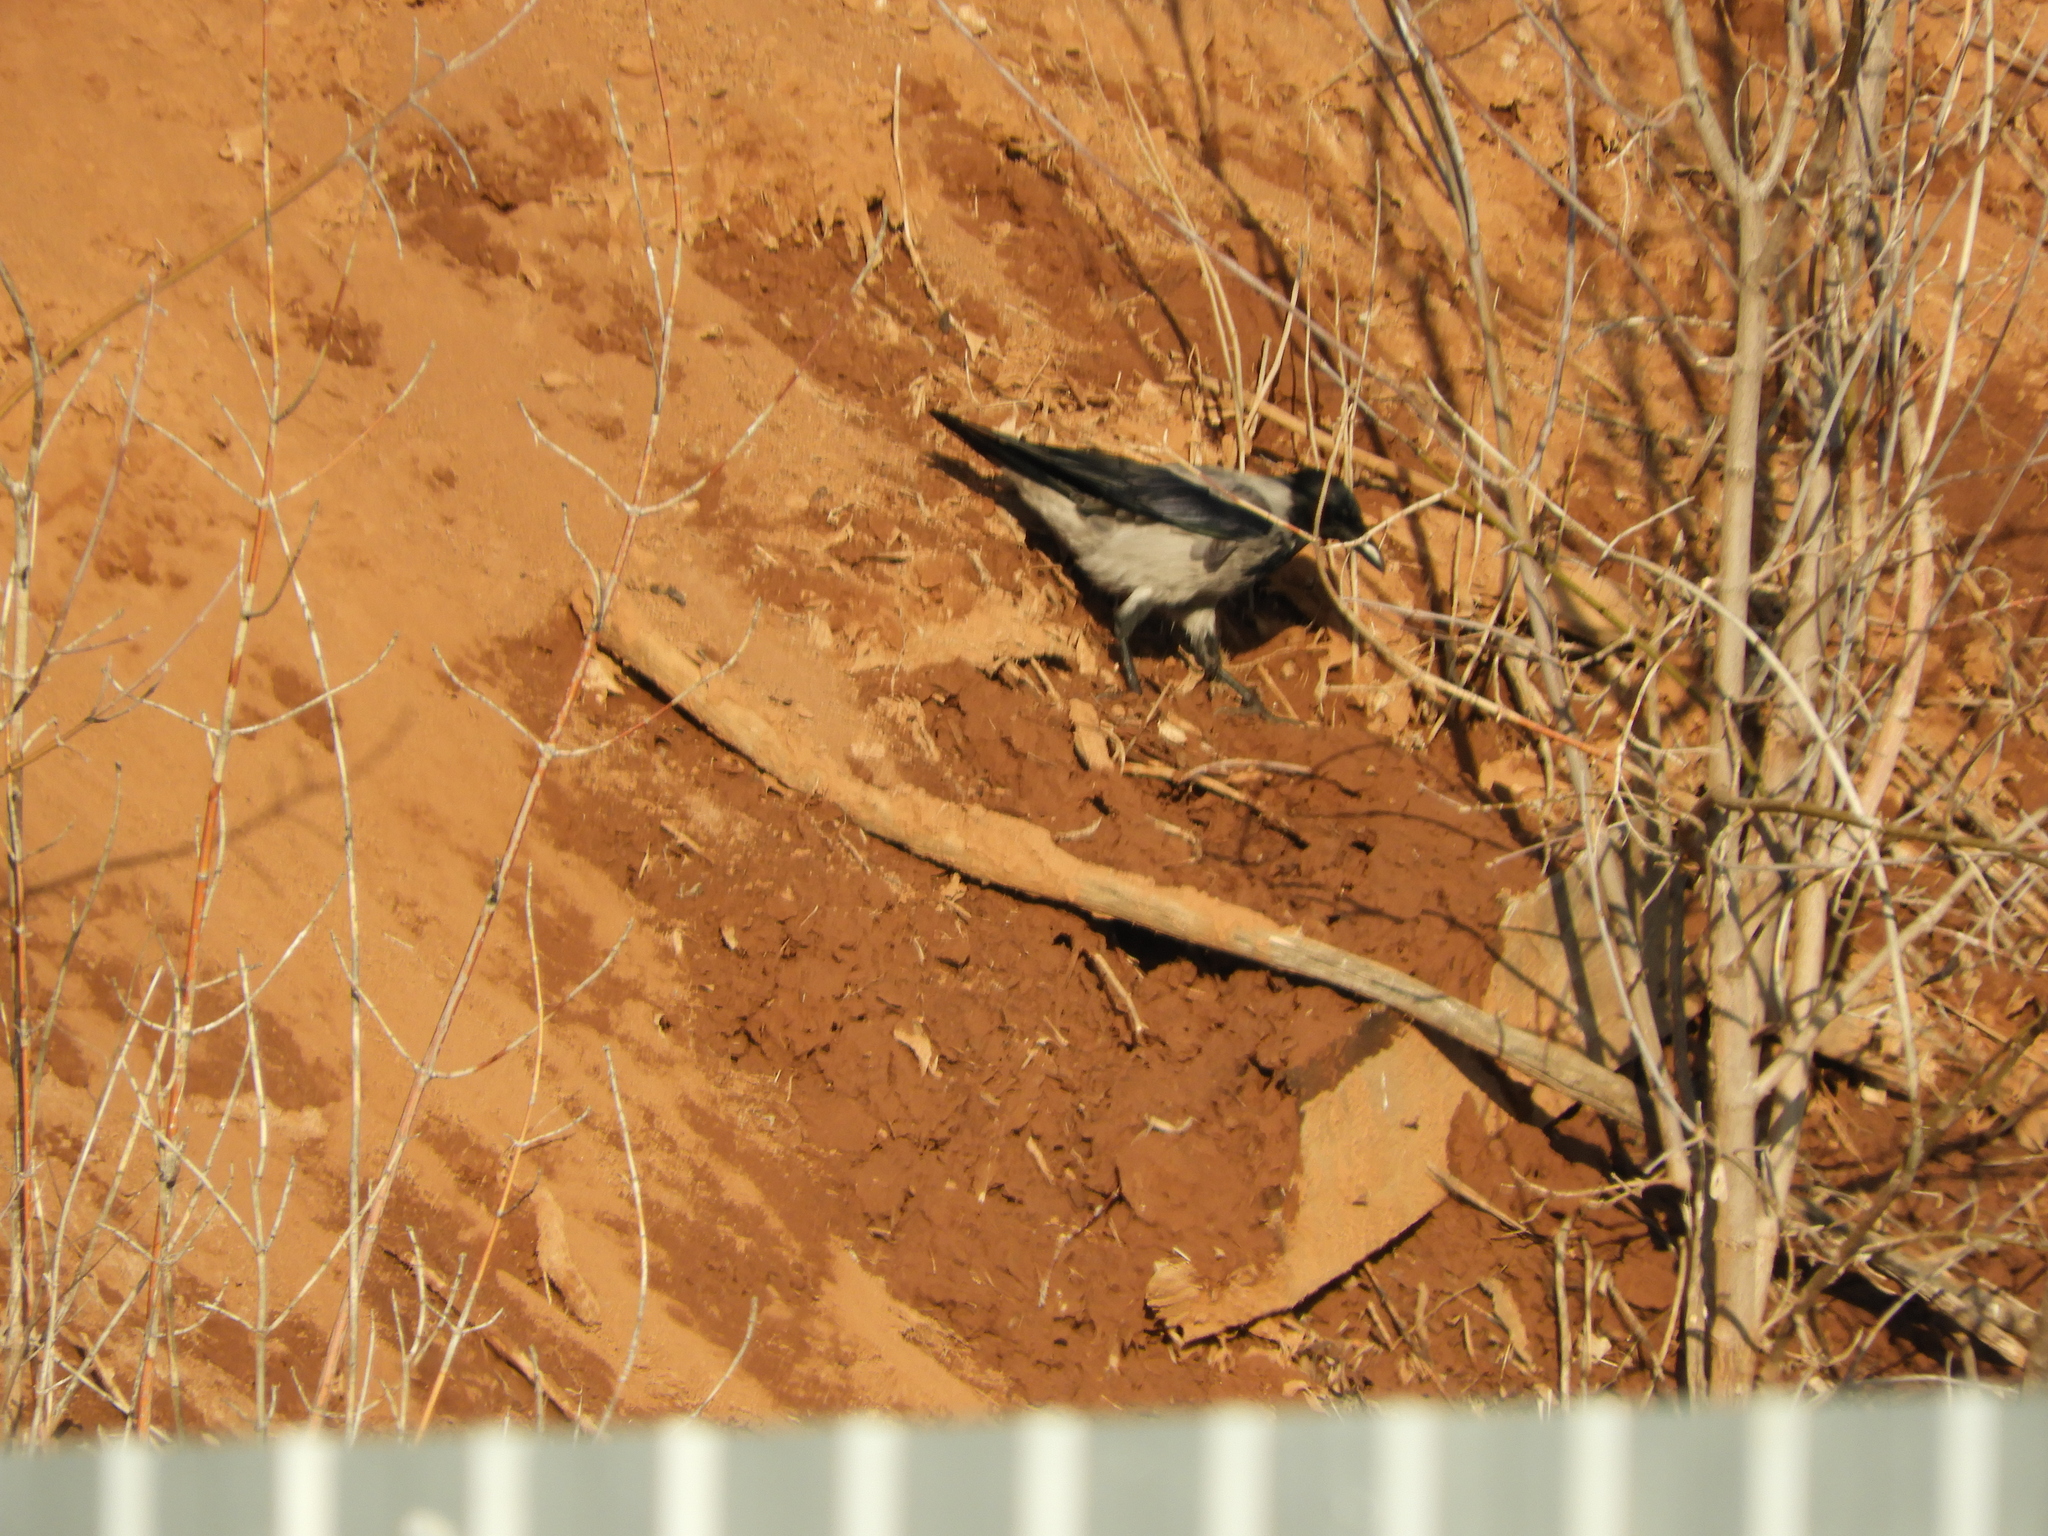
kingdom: Animalia
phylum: Chordata
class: Aves
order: Passeriformes
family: Corvidae
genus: Corvus
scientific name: Corvus cornix
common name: Hooded crow
